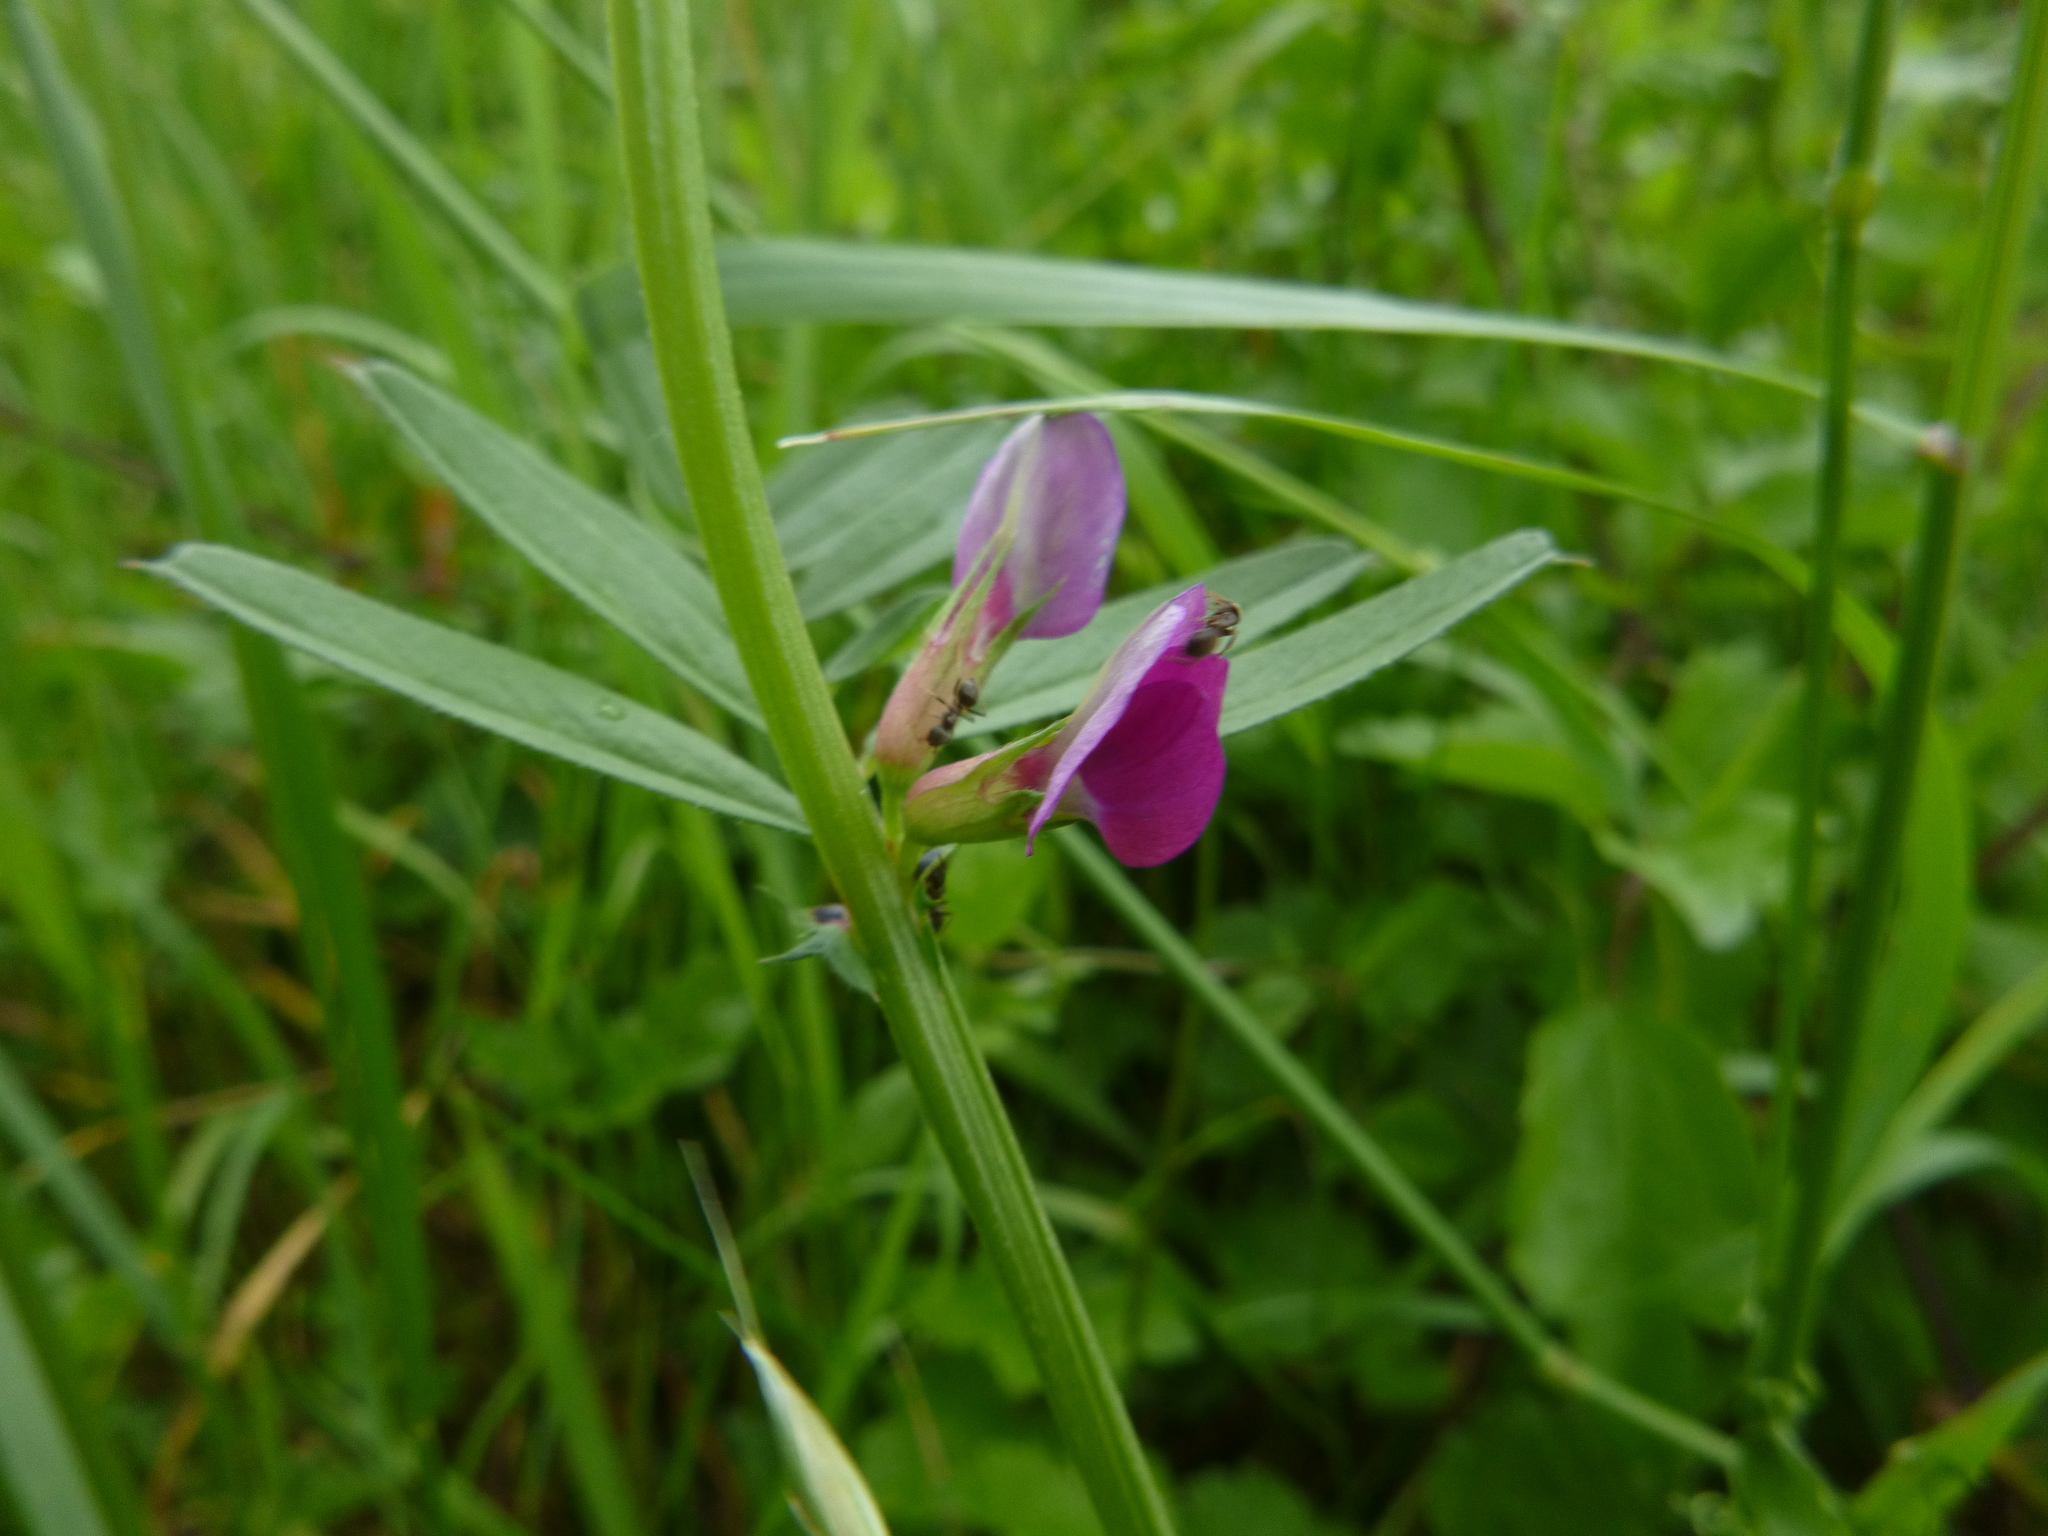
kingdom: Plantae
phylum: Tracheophyta
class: Magnoliopsida
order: Fabales
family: Fabaceae
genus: Vicia
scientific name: Vicia sativa
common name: Garden vetch
